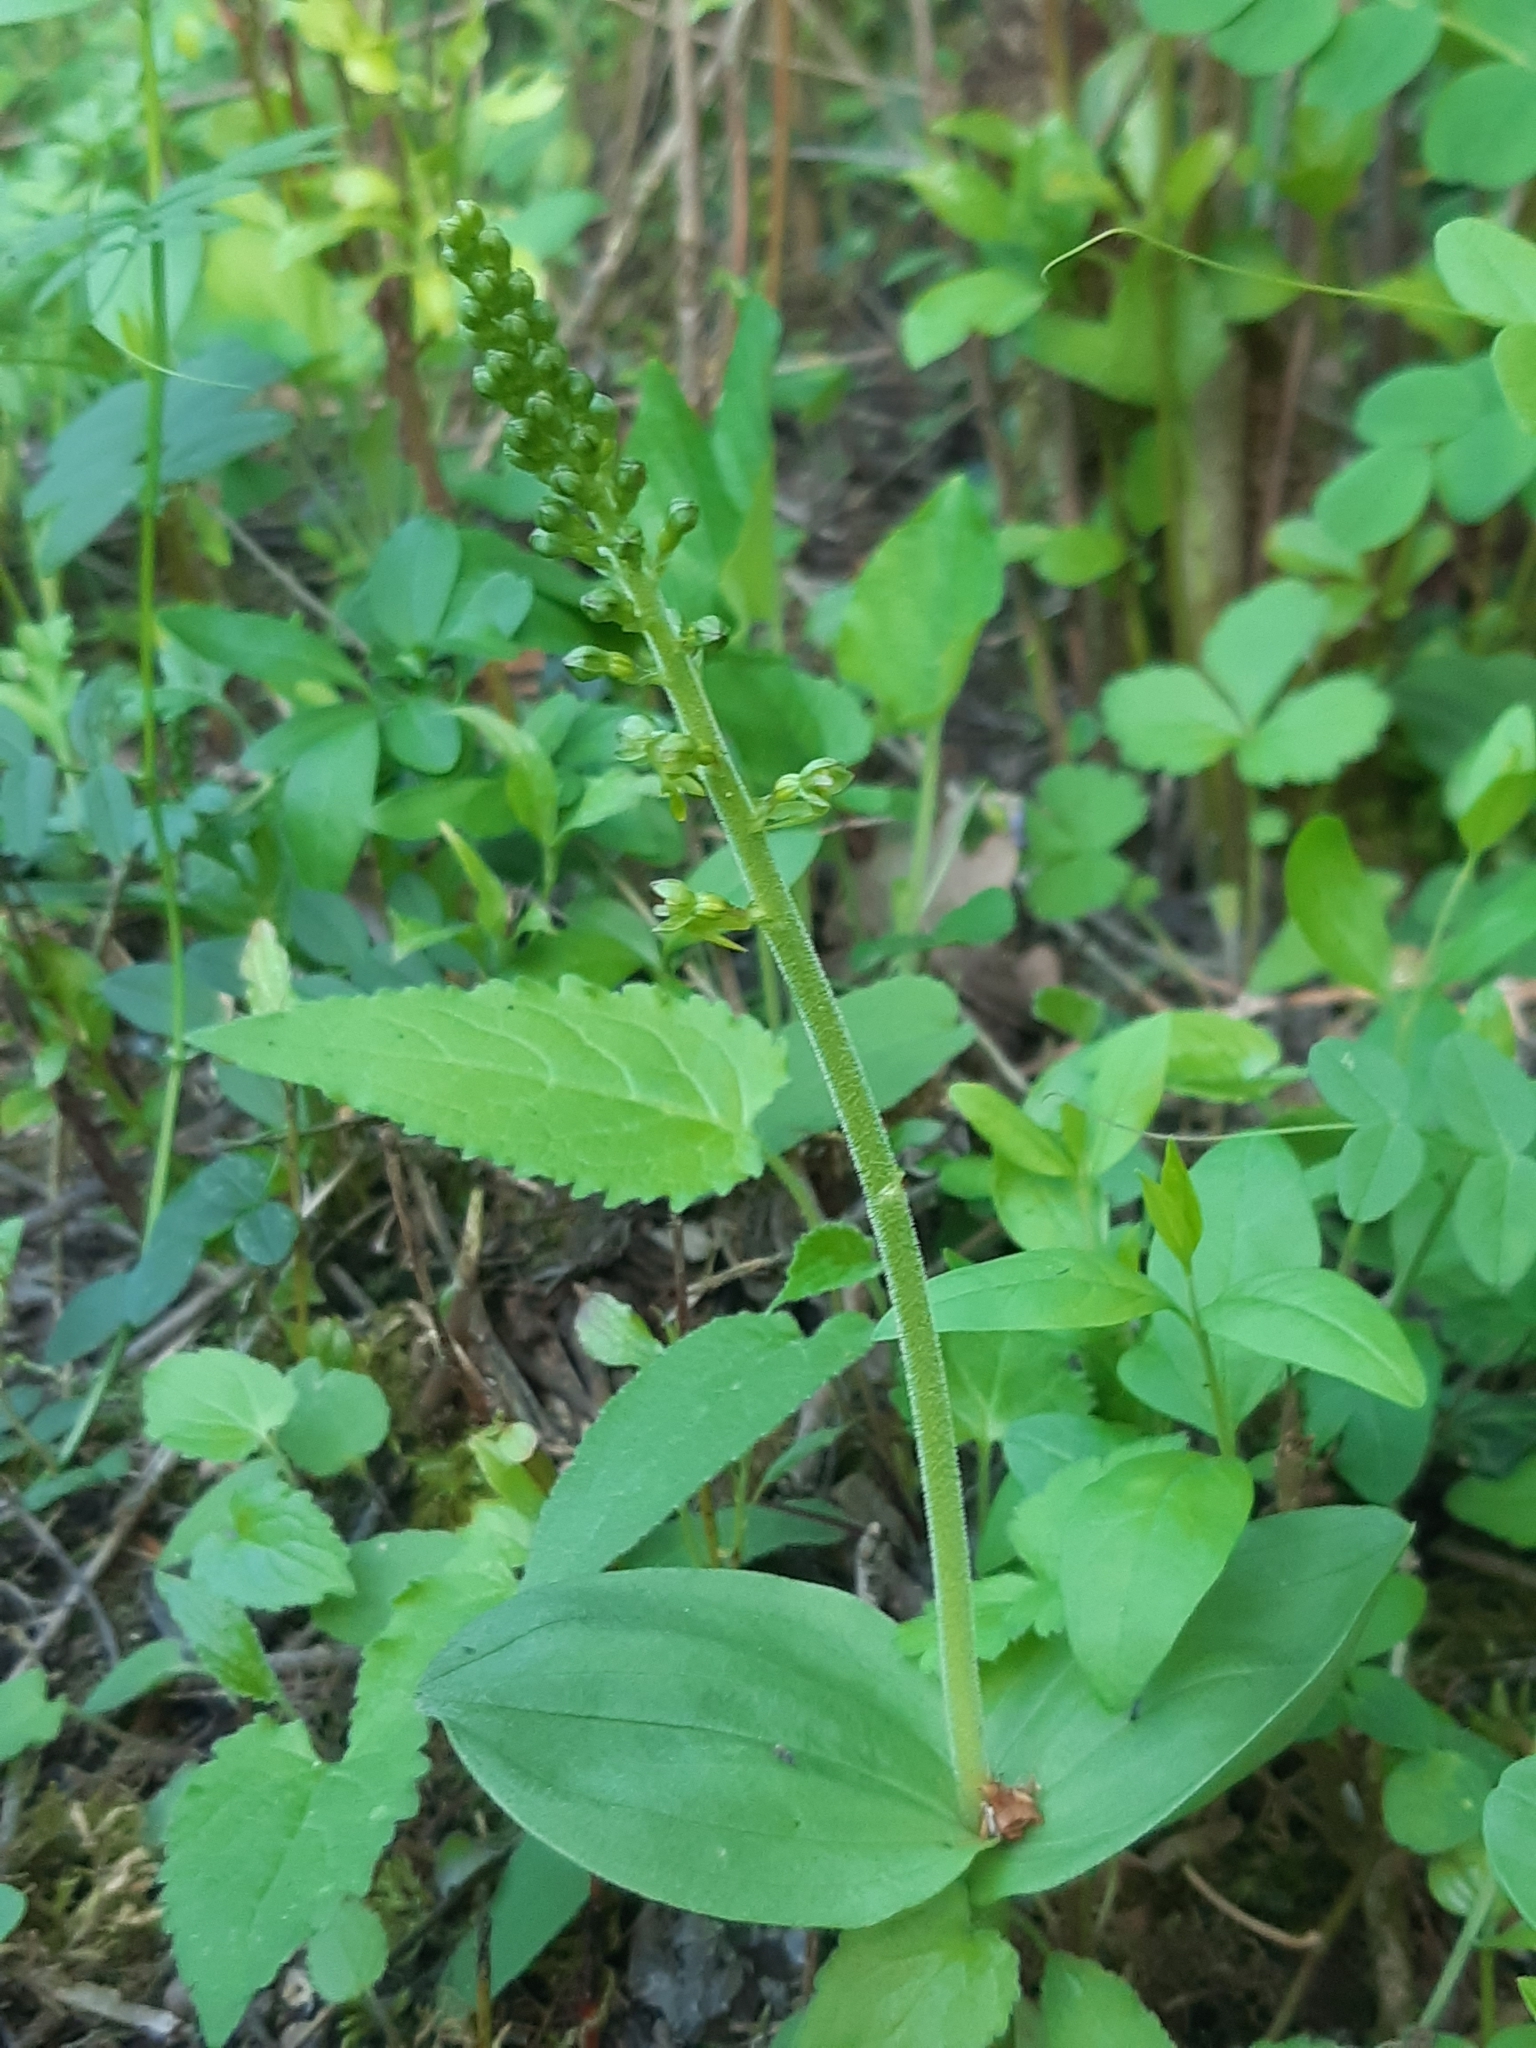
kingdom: Plantae
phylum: Tracheophyta
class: Liliopsida
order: Asparagales
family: Orchidaceae
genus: Neottia
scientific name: Neottia ovata
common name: Common twayblade
